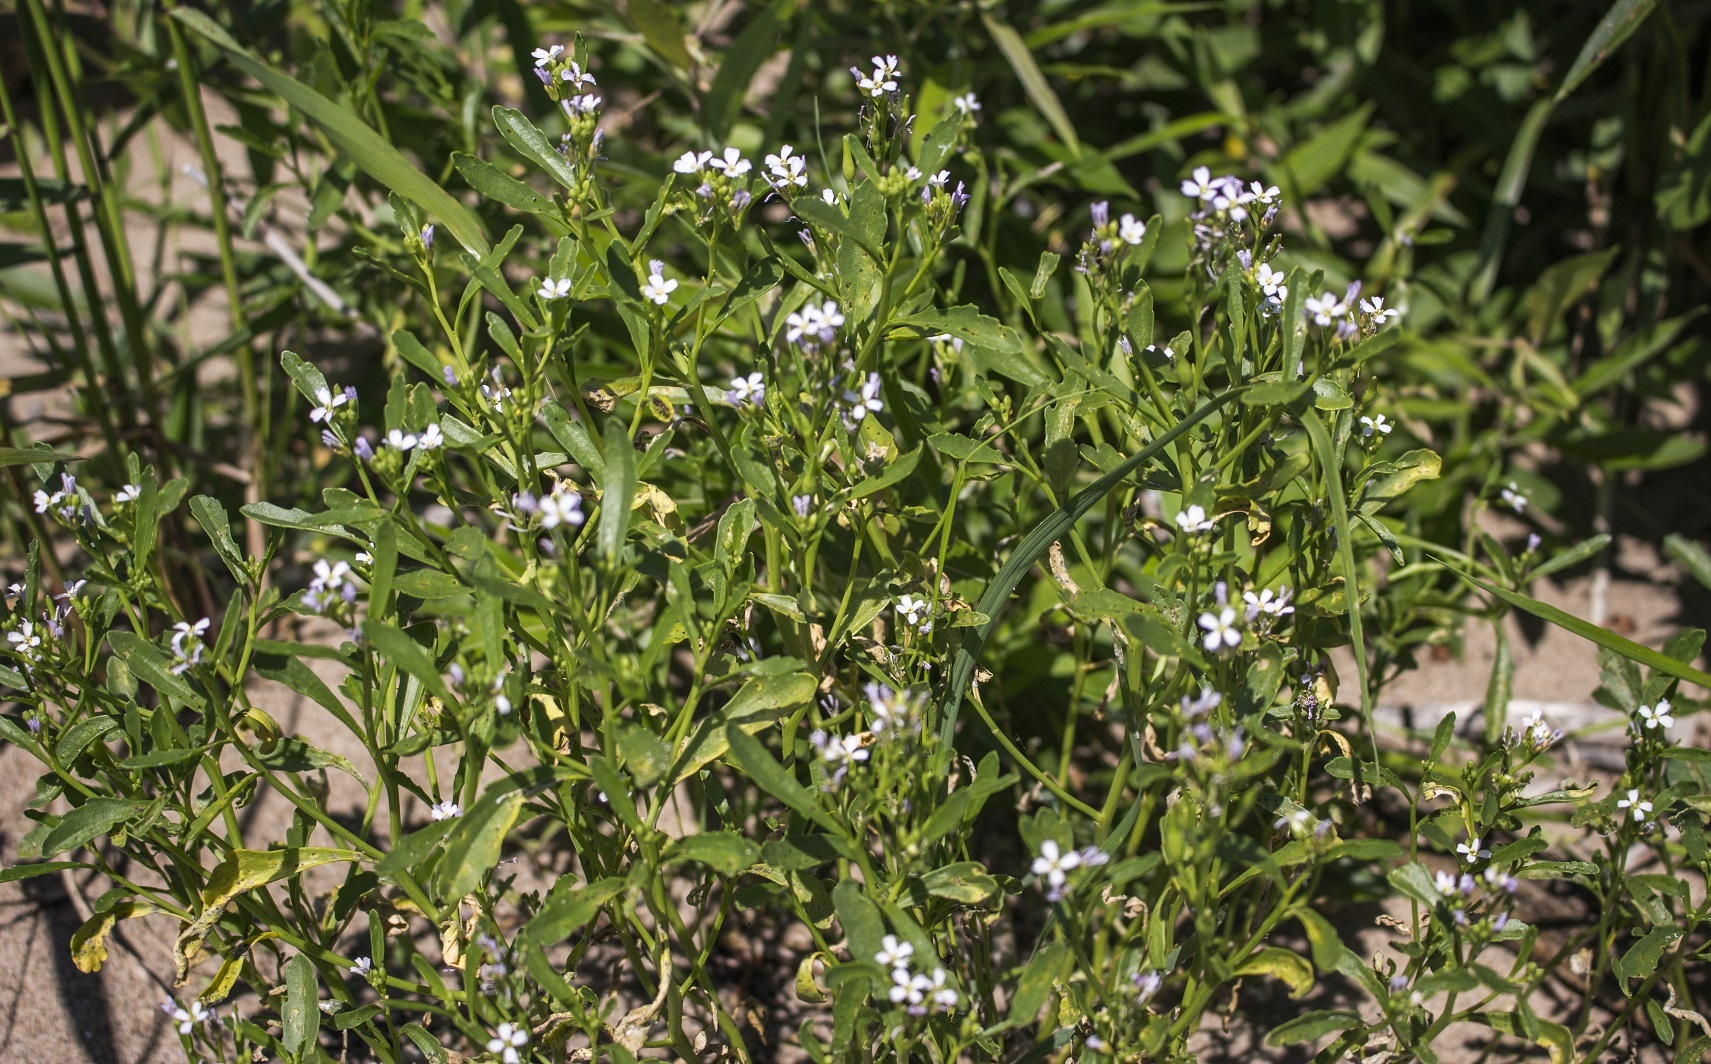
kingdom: Plantae
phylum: Tracheophyta
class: Magnoliopsida
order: Brassicales
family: Brassicaceae
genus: Cakile
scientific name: Cakile edentula
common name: American sea rocket
